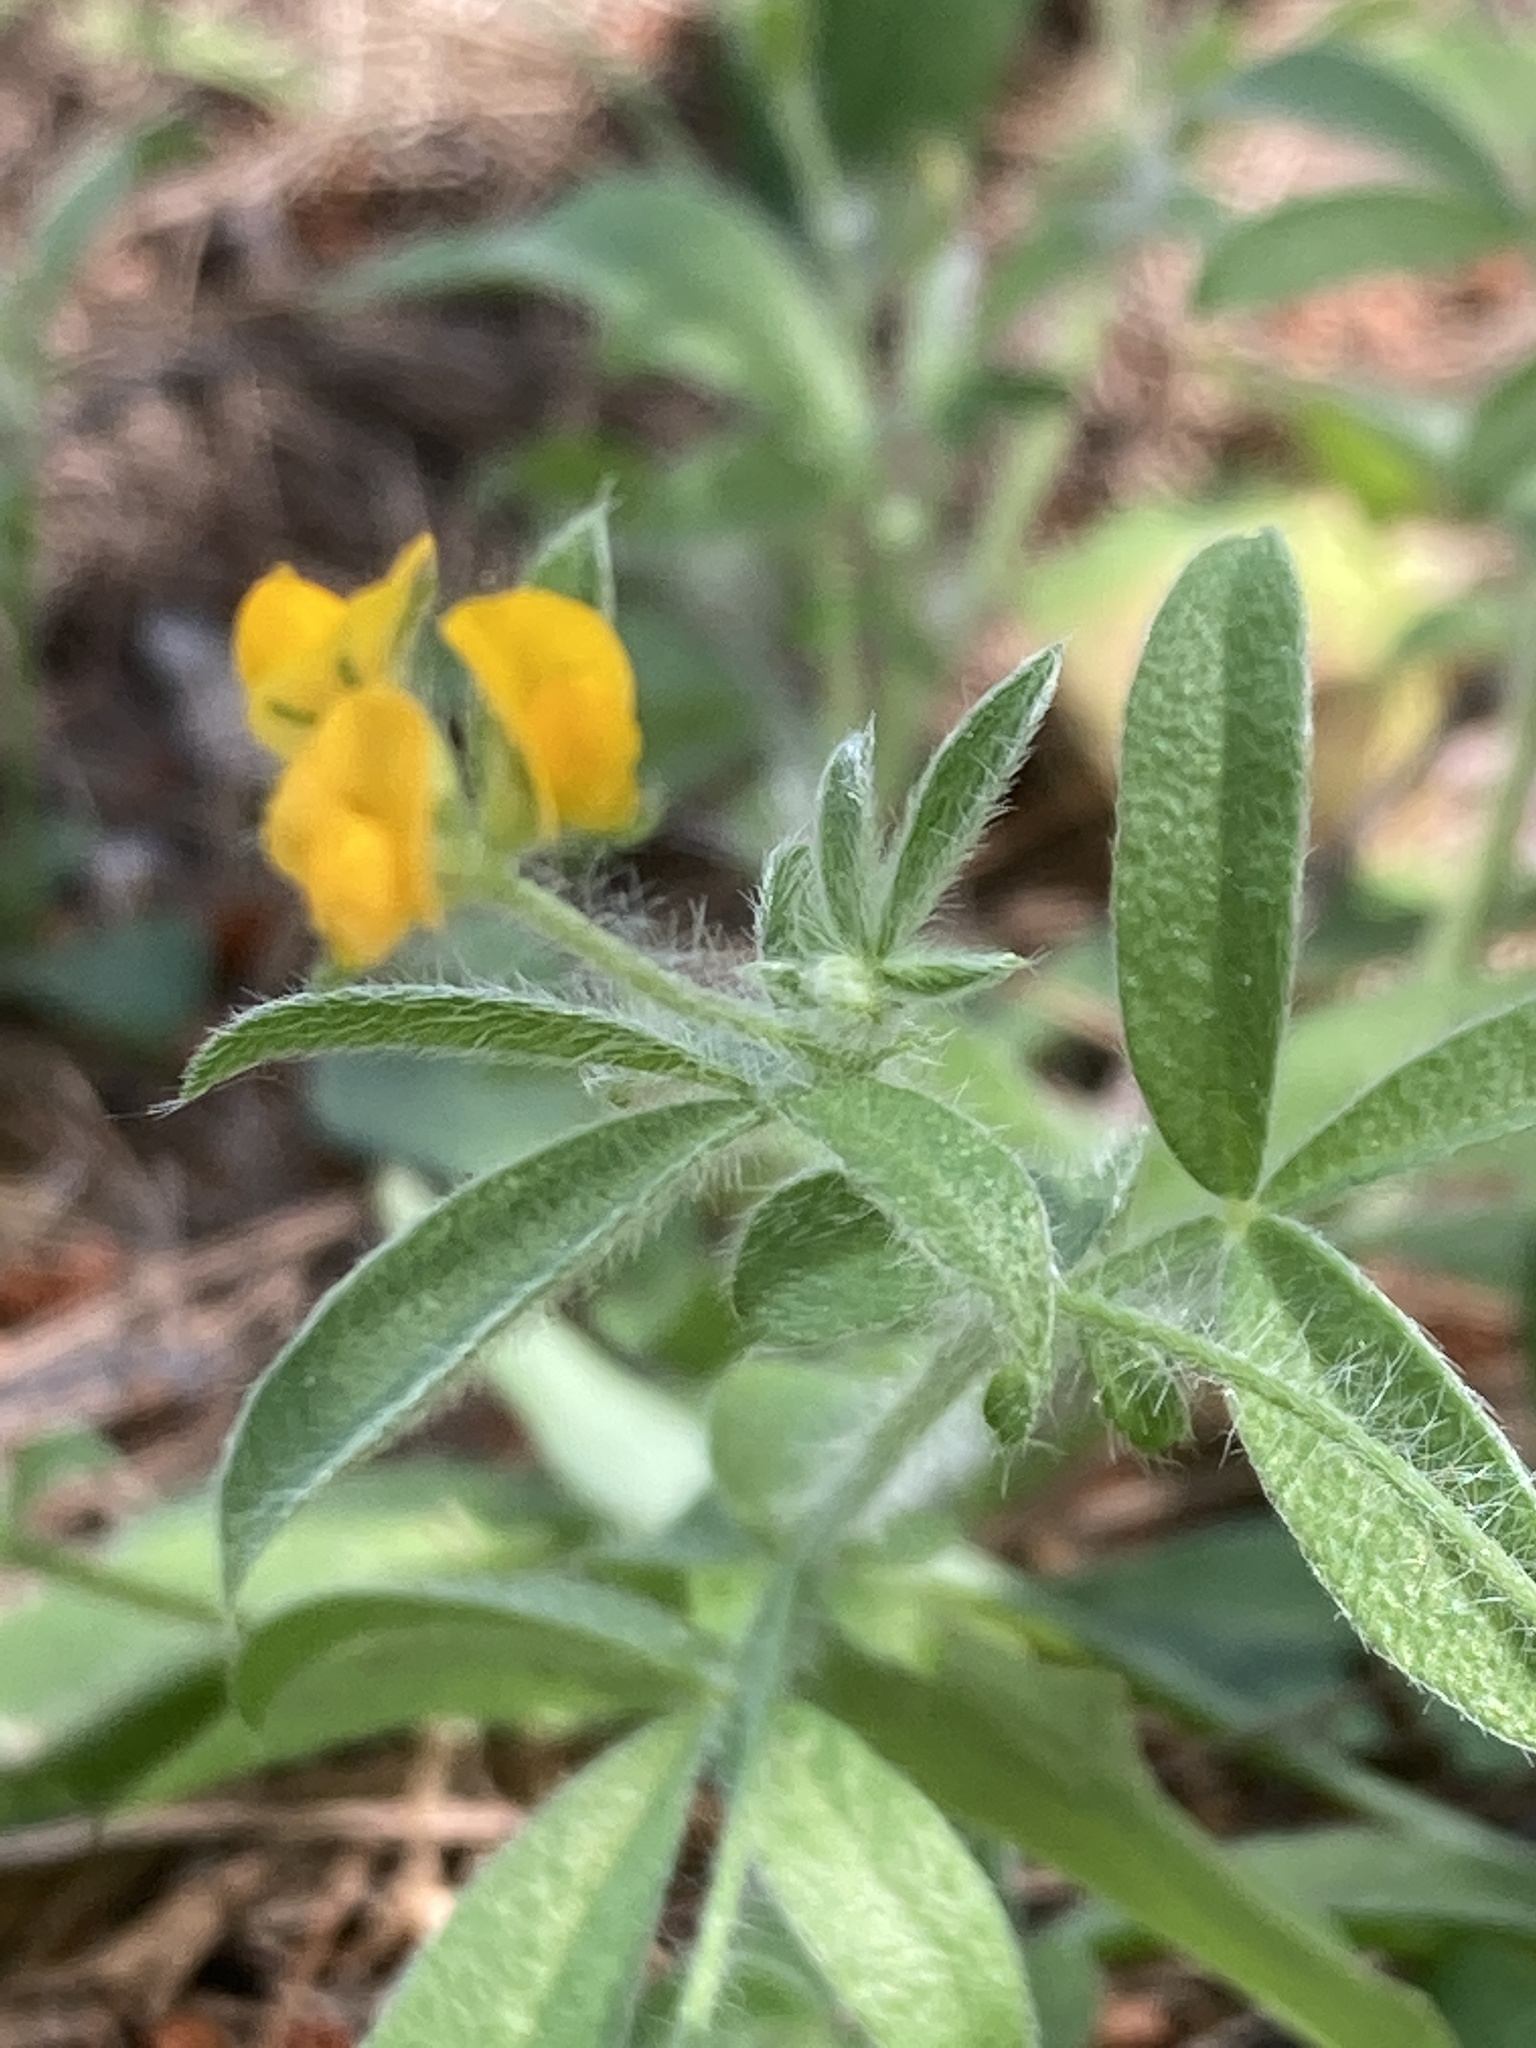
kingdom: Plantae
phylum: Tracheophyta
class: Magnoliopsida
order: Fabales
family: Fabaceae
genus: Anthyllis
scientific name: Anthyllis circinnata
